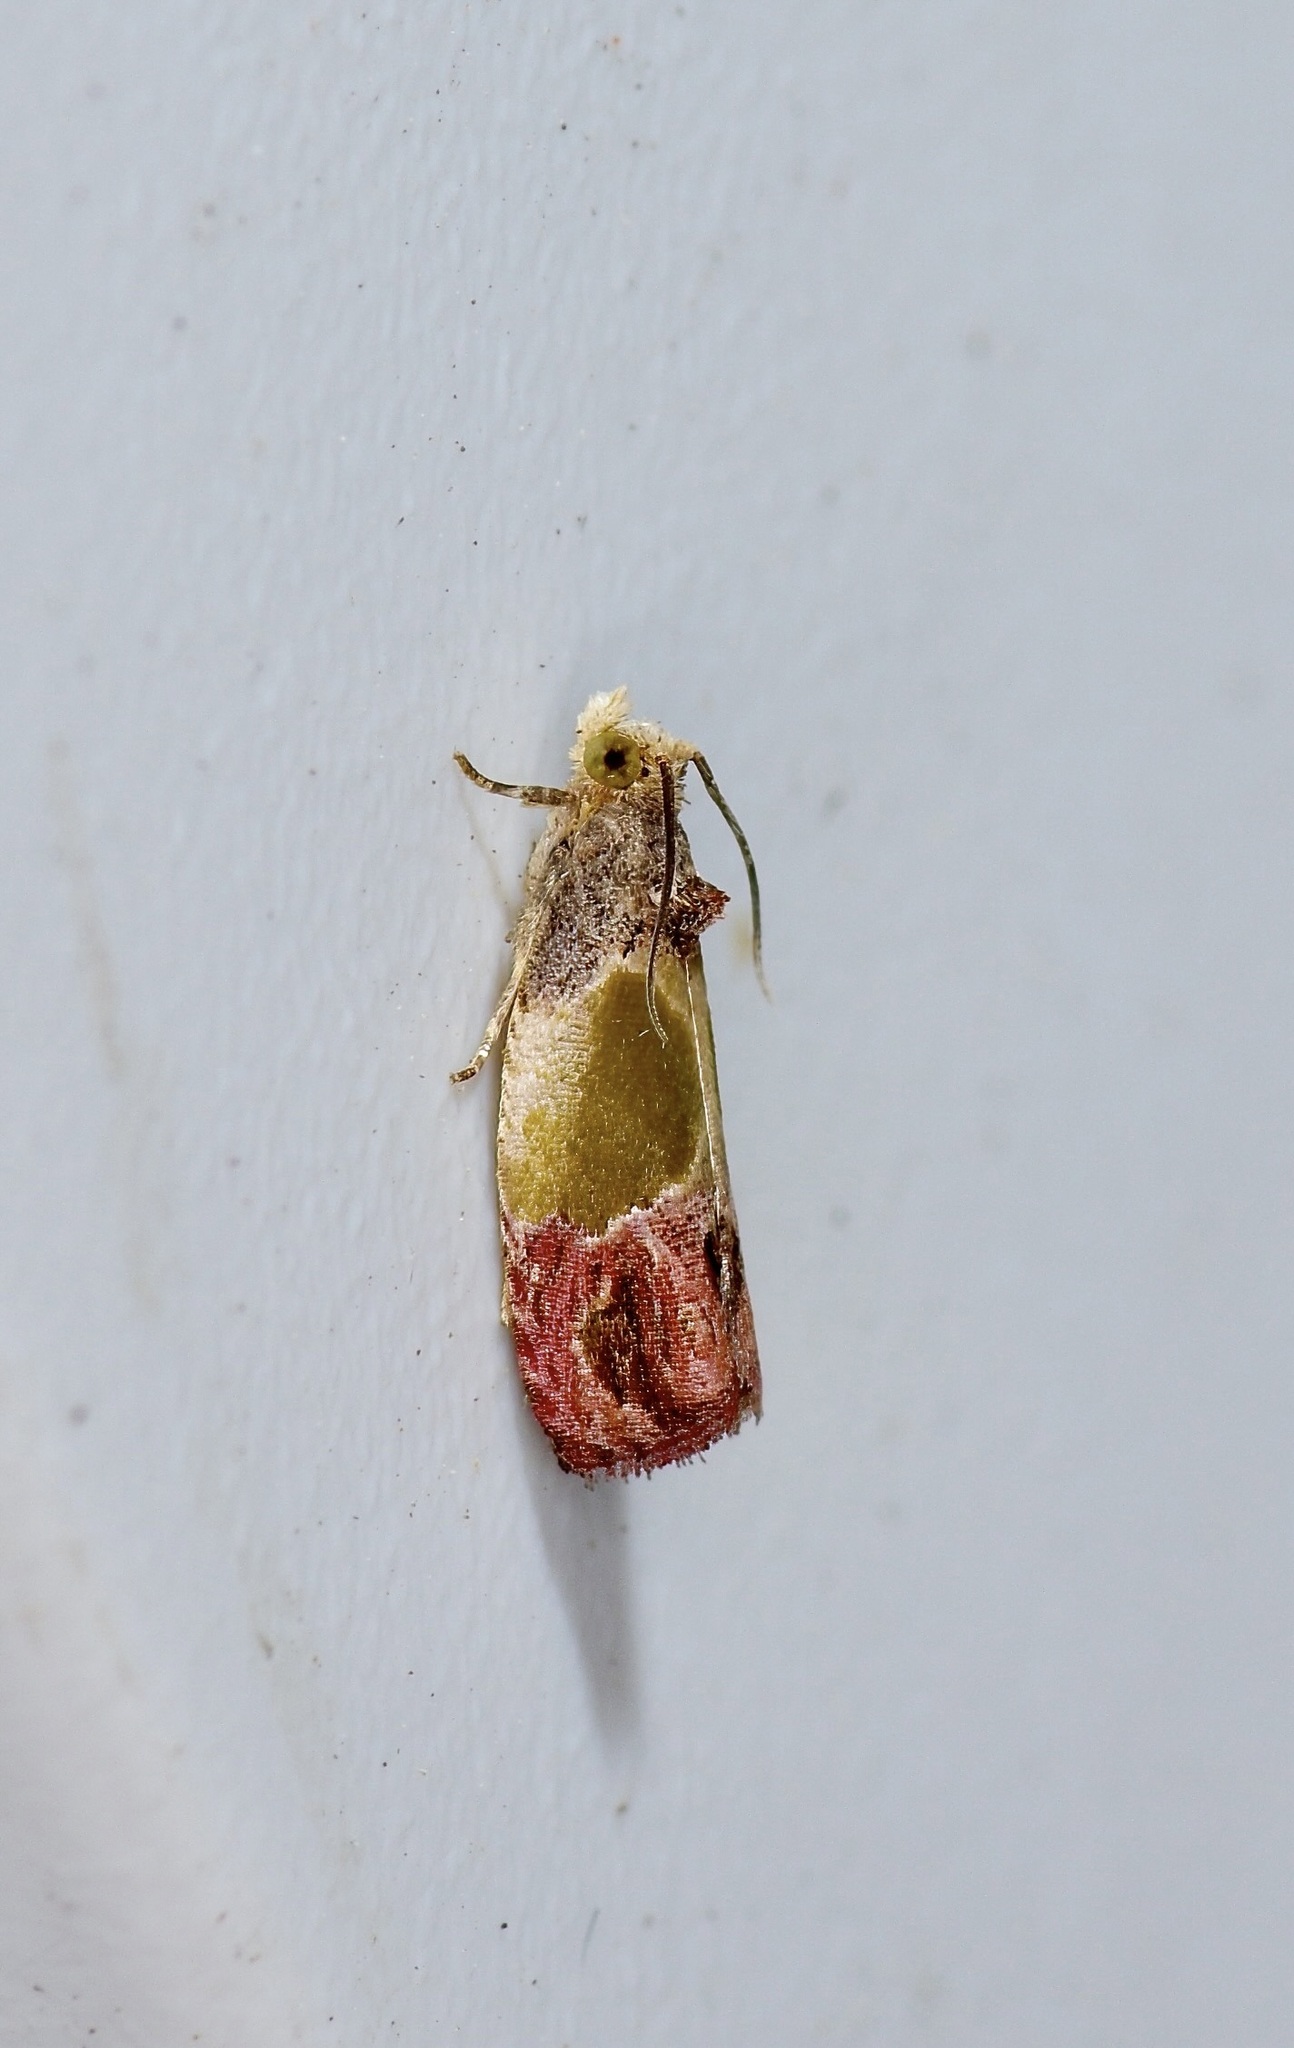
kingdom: Animalia
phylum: Arthropoda
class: Insecta
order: Lepidoptera
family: Tortricidae
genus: Eumarozia
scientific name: Eumarozia malachitana
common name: Sculptured moth
